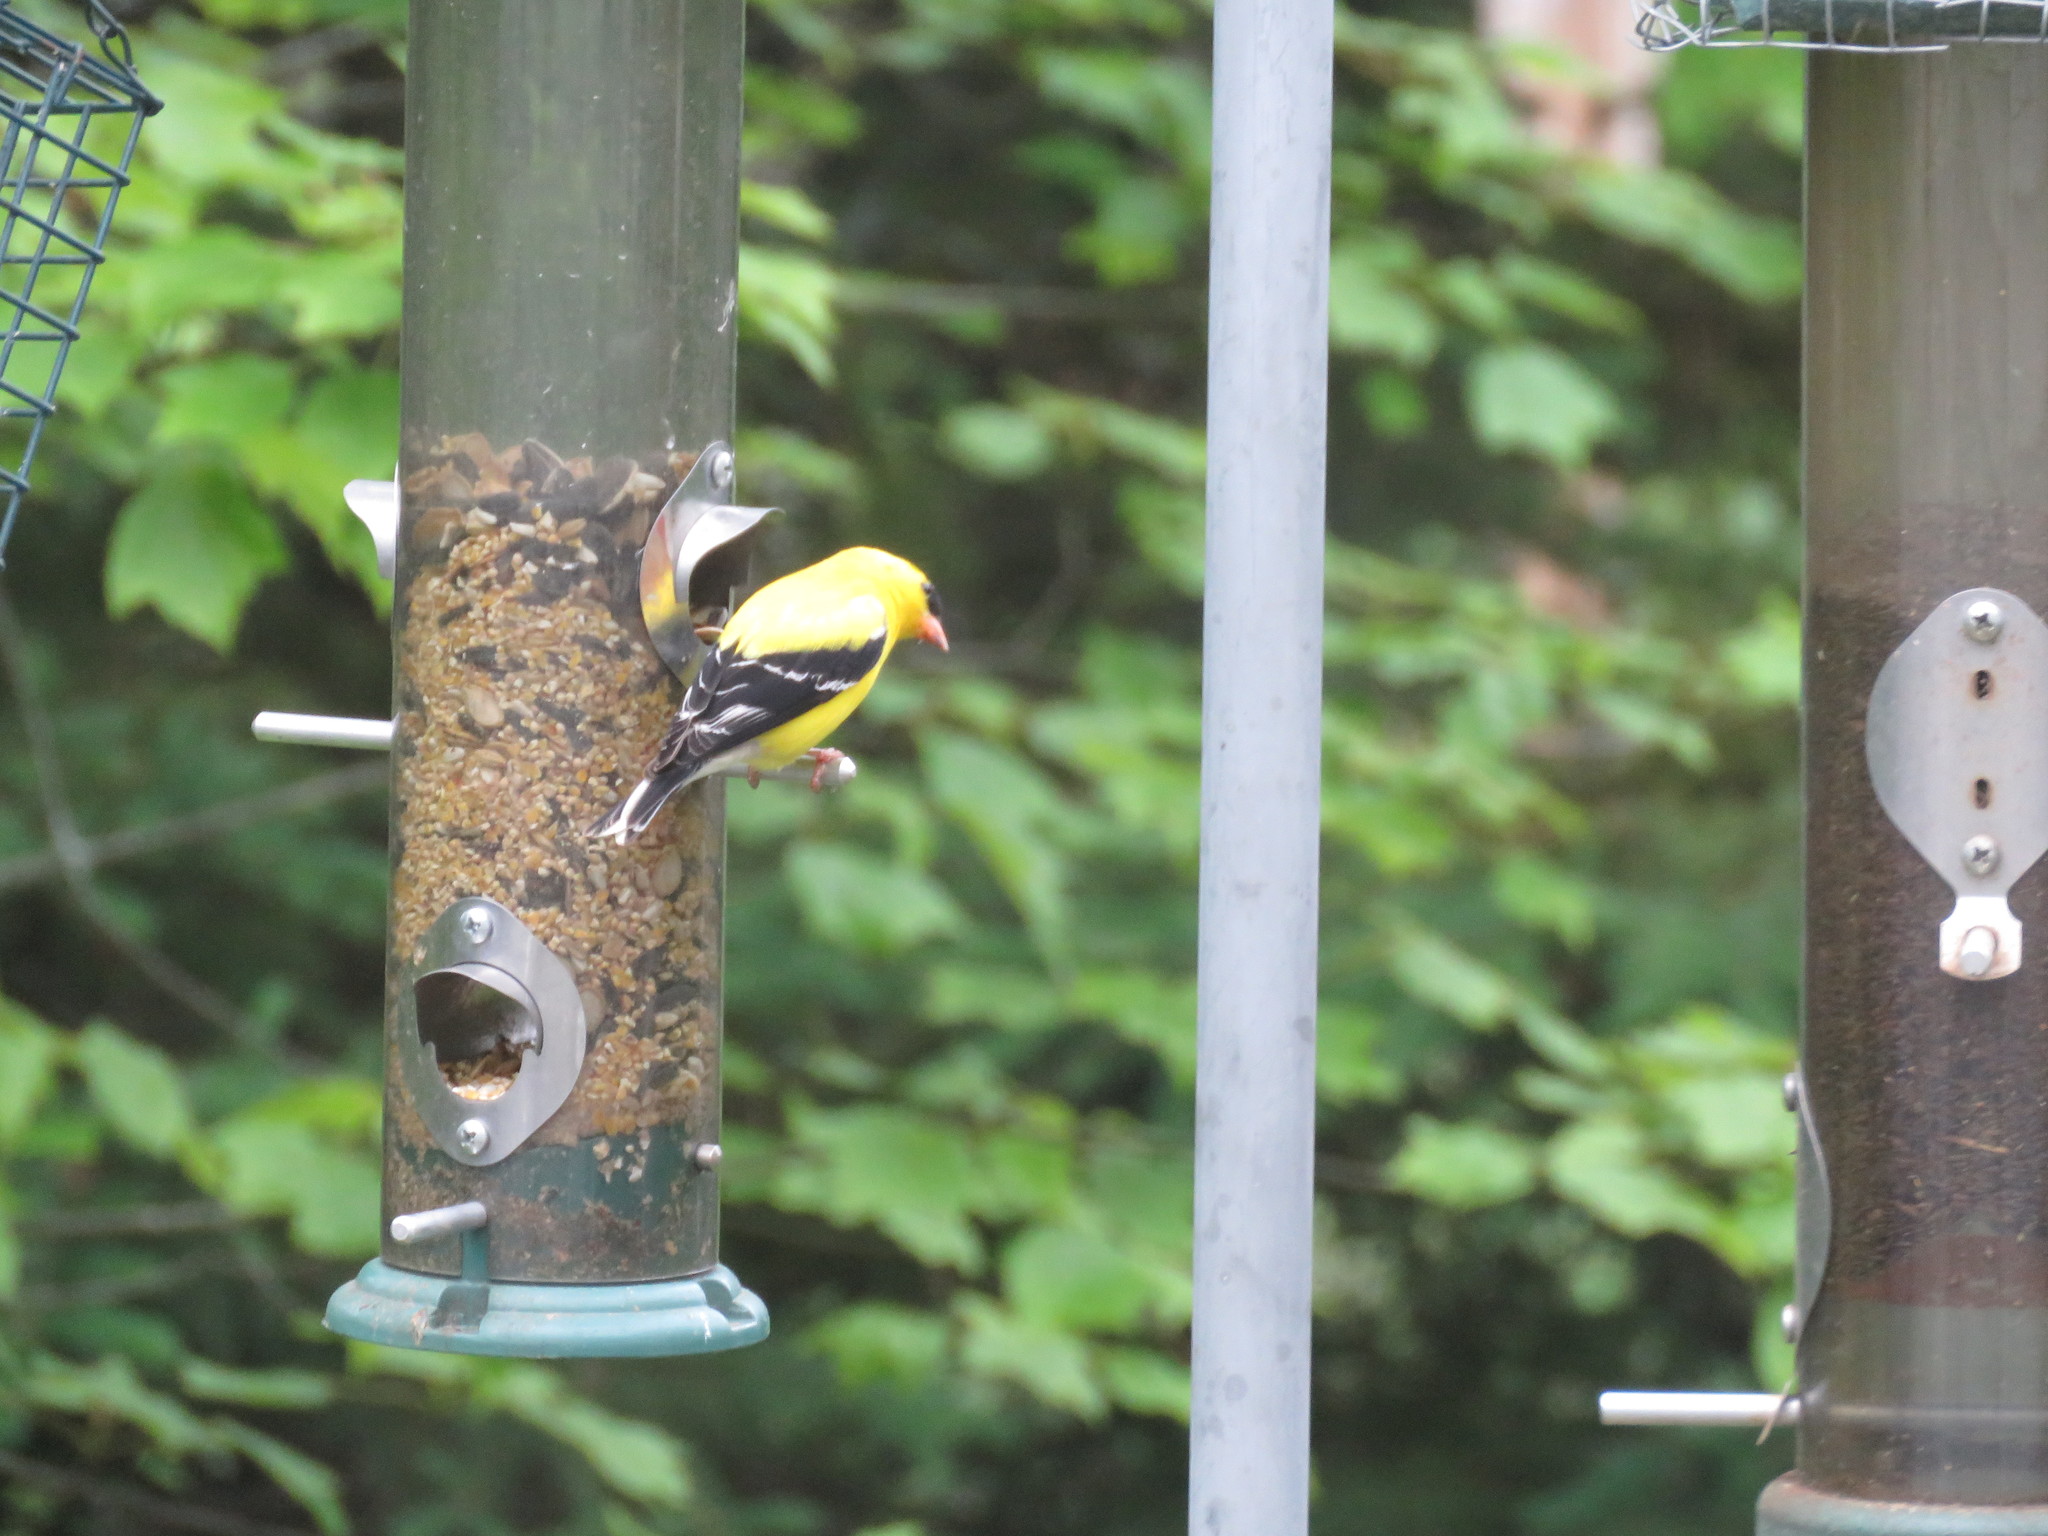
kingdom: Animalia
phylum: Chordata
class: Aves
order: Passeriformes
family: Fringillidae
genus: Spinus
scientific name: Spinus tristis
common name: American goldfinch
